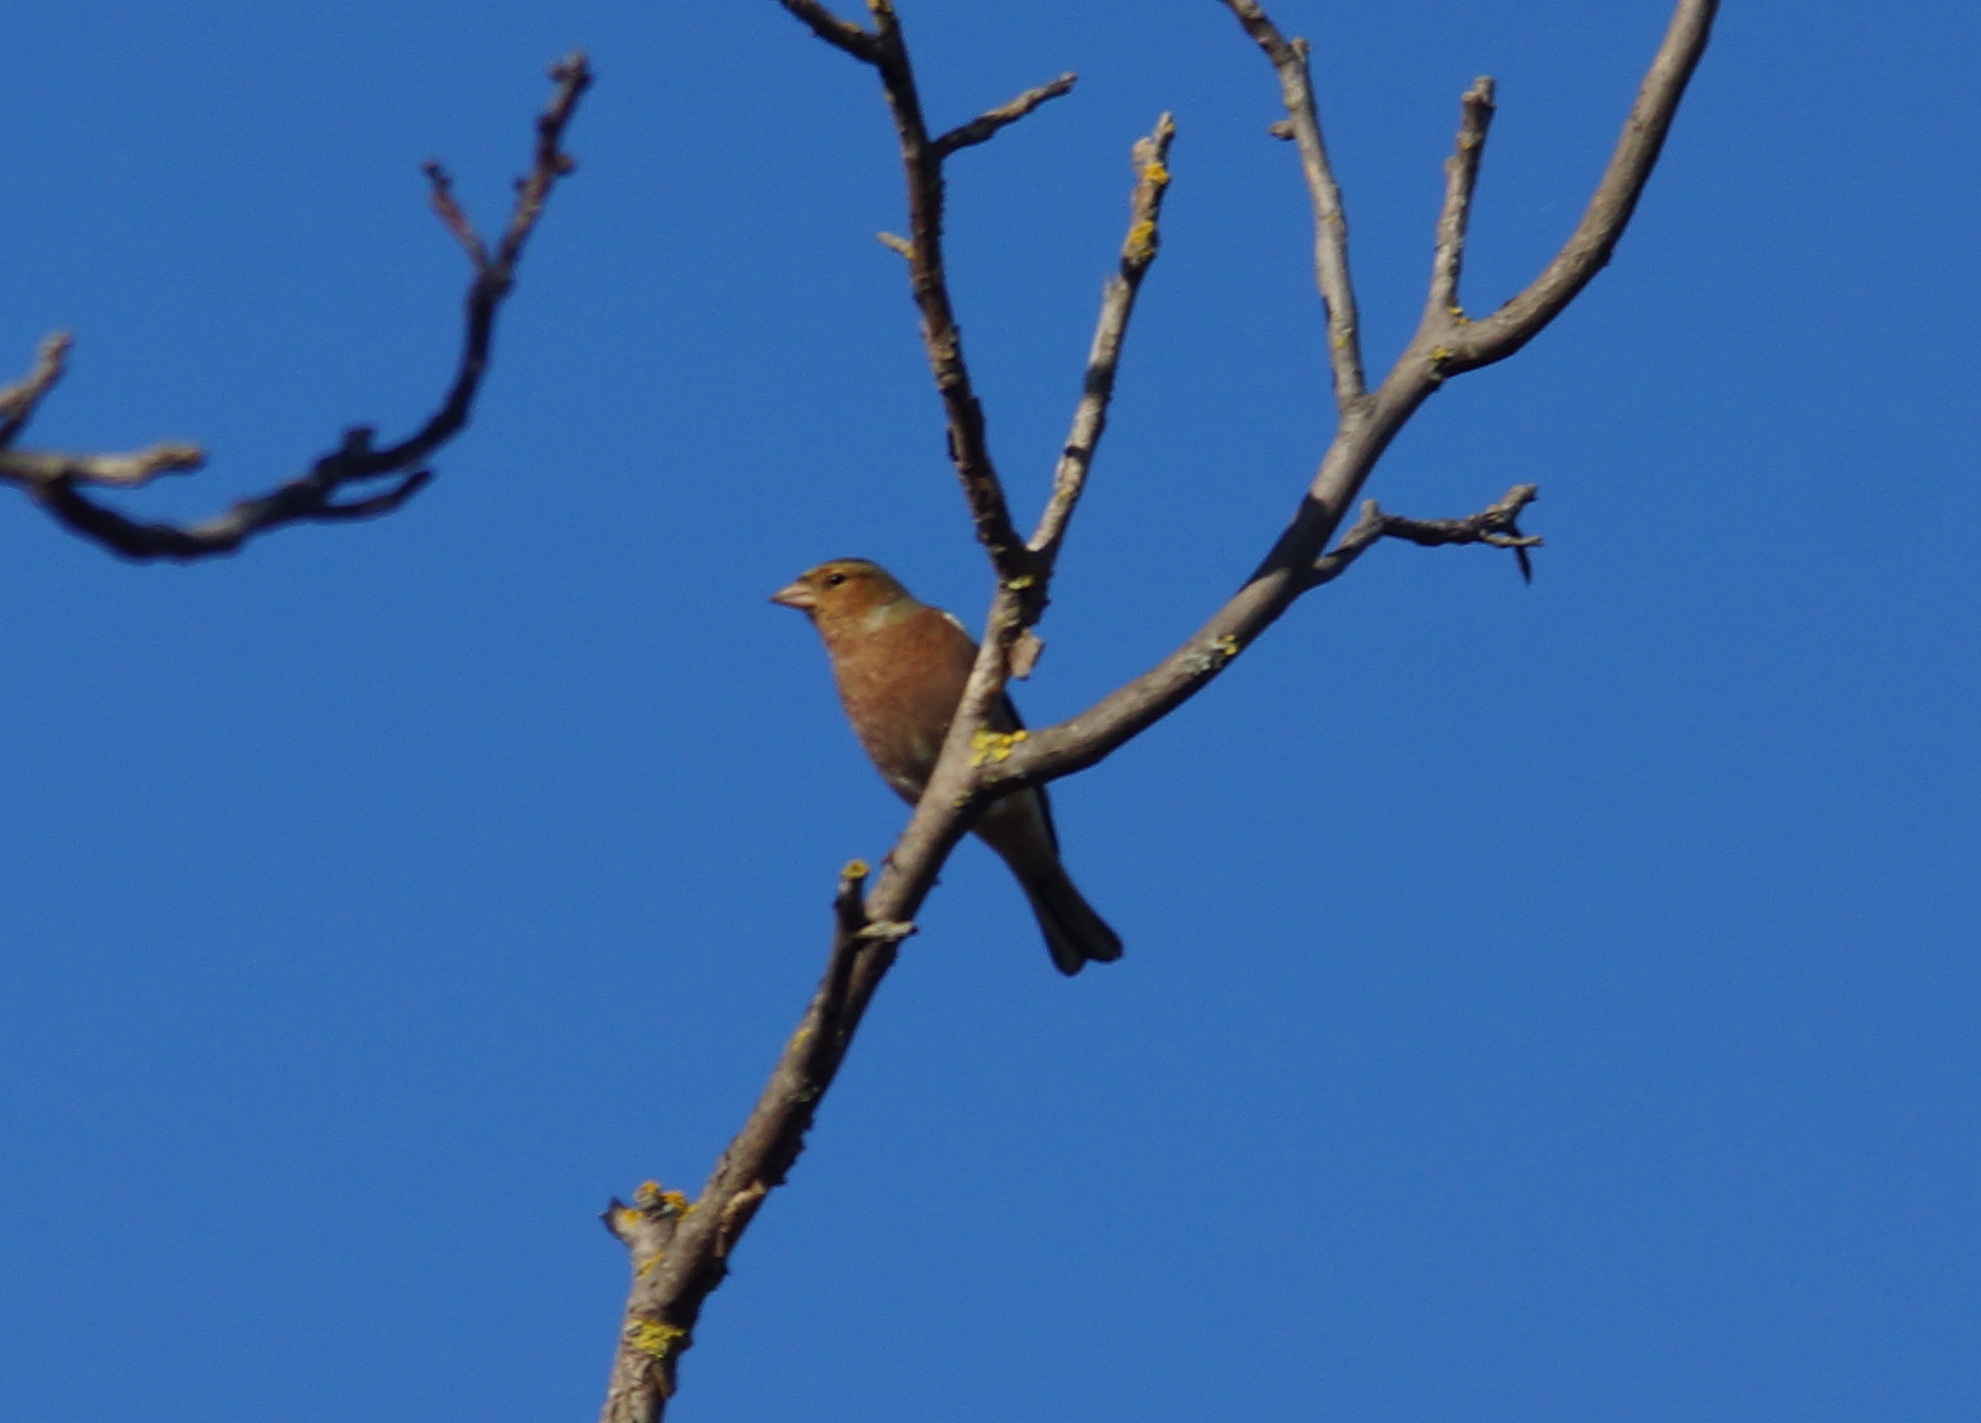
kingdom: Animalia
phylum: Chordata
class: Aves
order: Passeriformes
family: Fringillidae
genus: Fringilla
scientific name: Fringilla coelebs
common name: Common chaffinch
